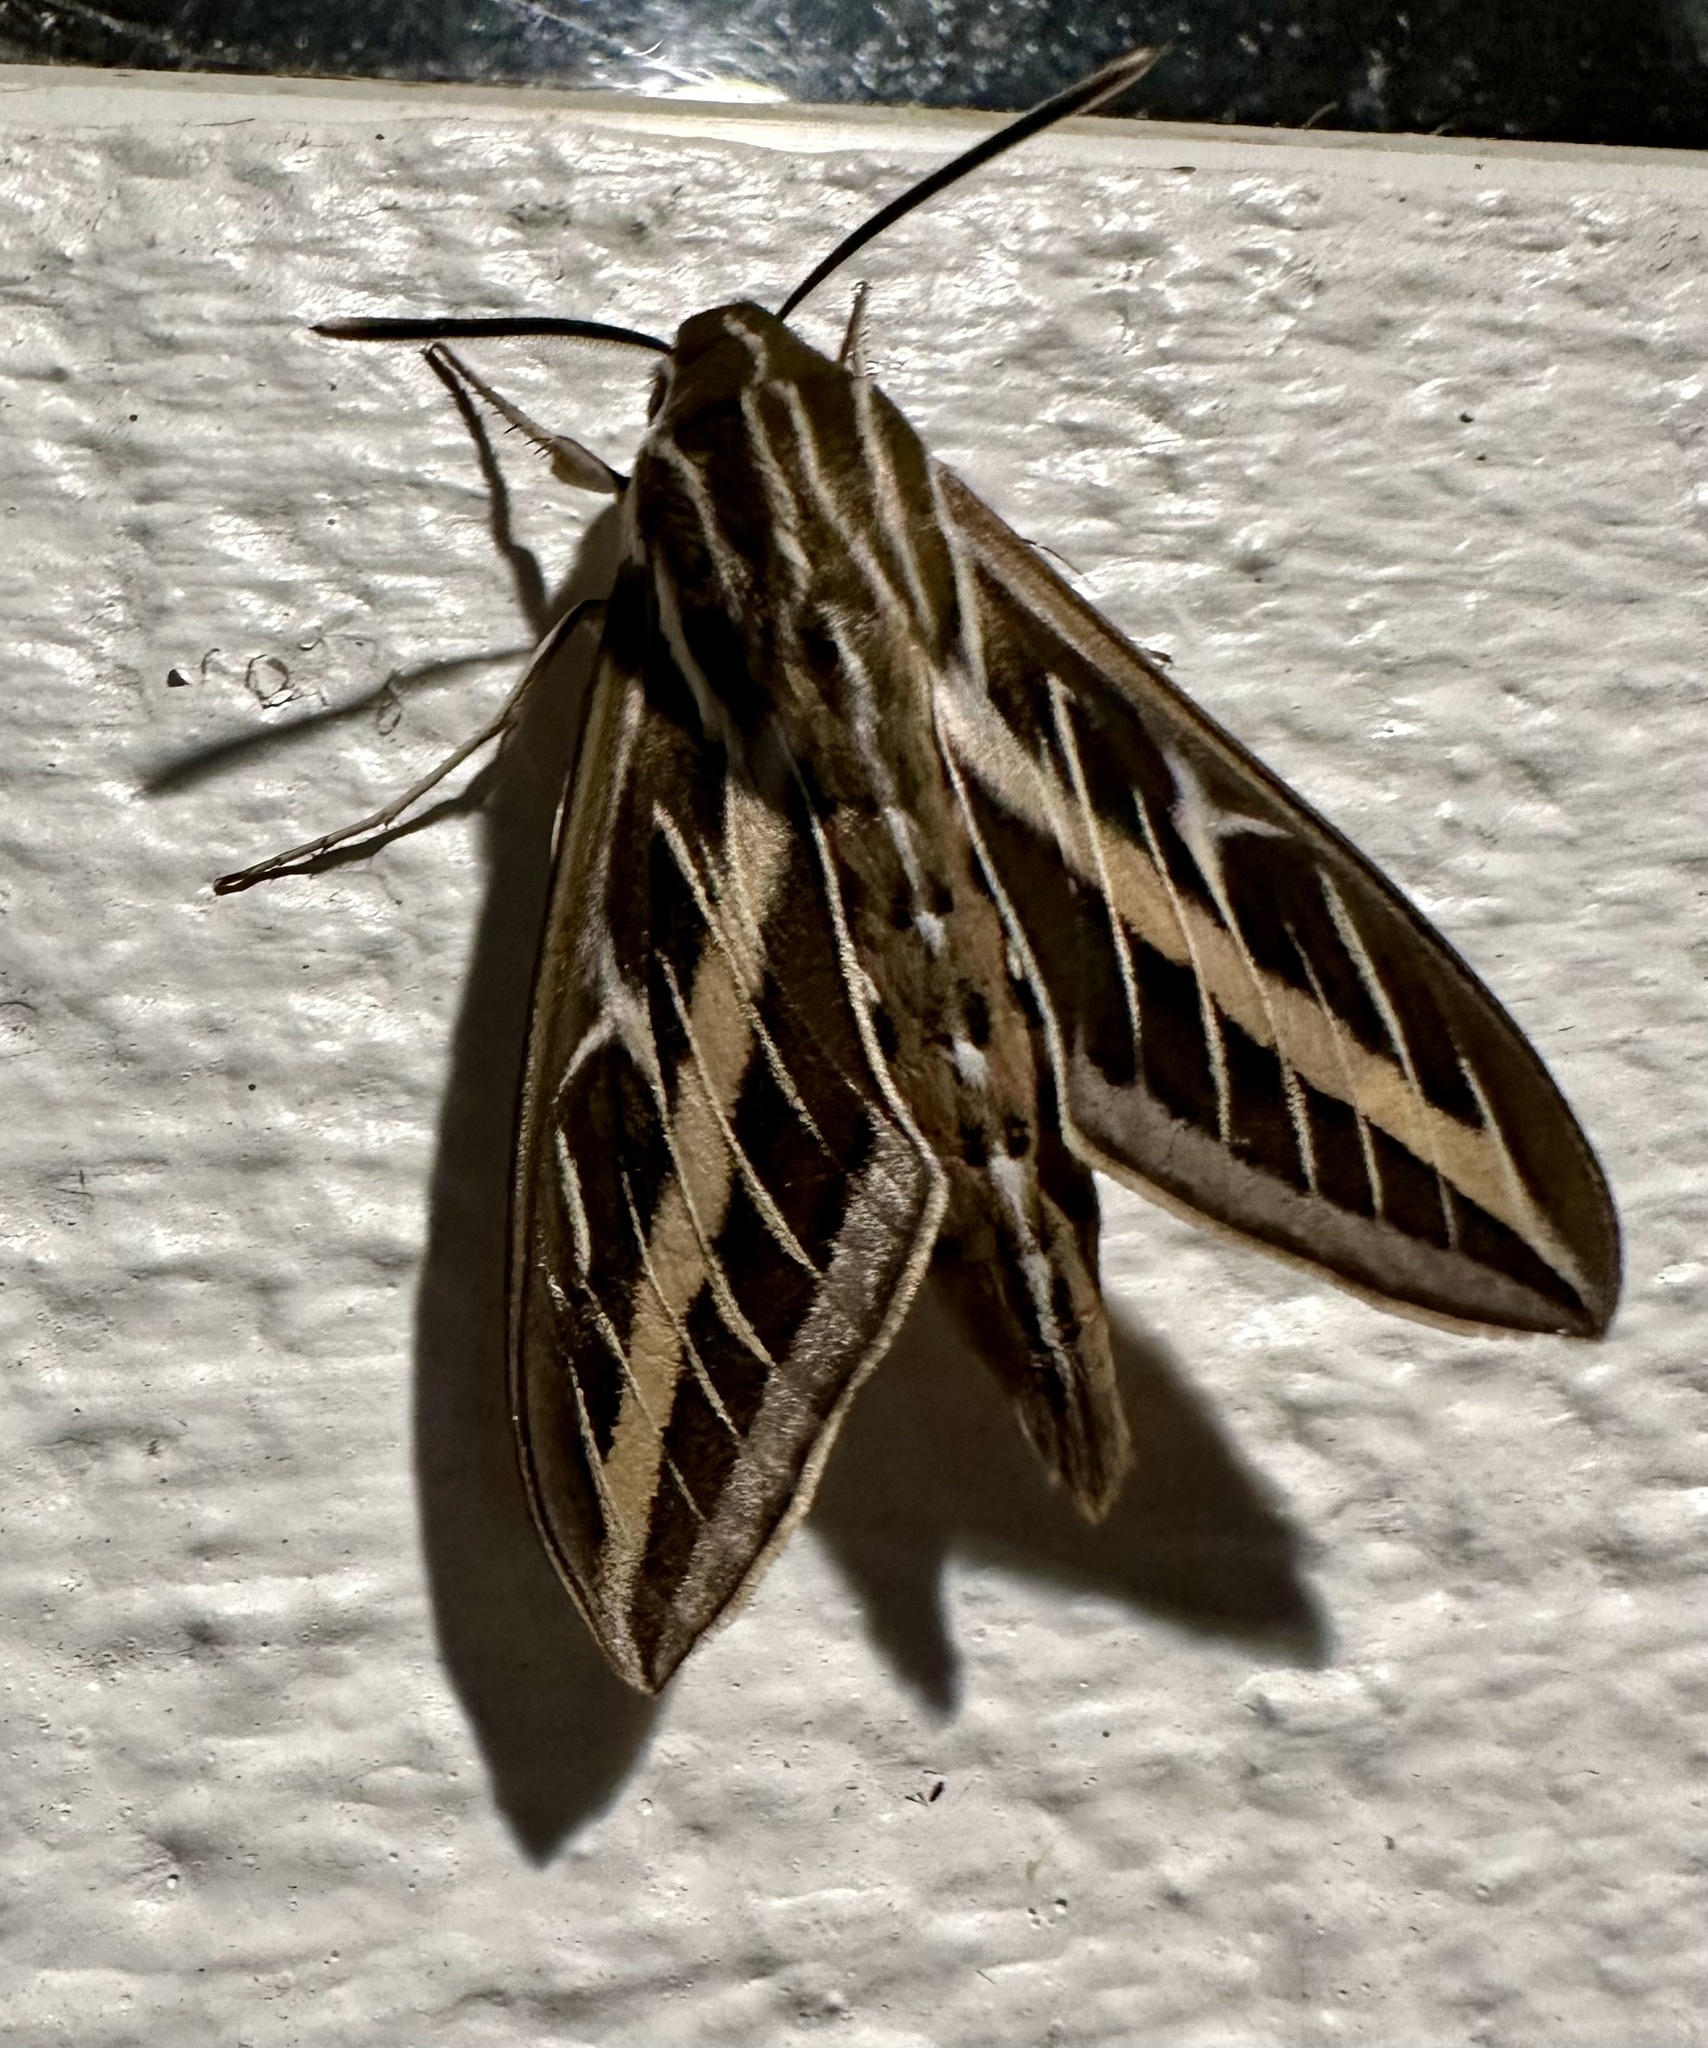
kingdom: Animalia
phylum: Arthropoda
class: Insecta
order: Lepidoptera
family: Sphingidae
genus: Hyles
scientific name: Hyles lineata
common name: White-lined sphinx
